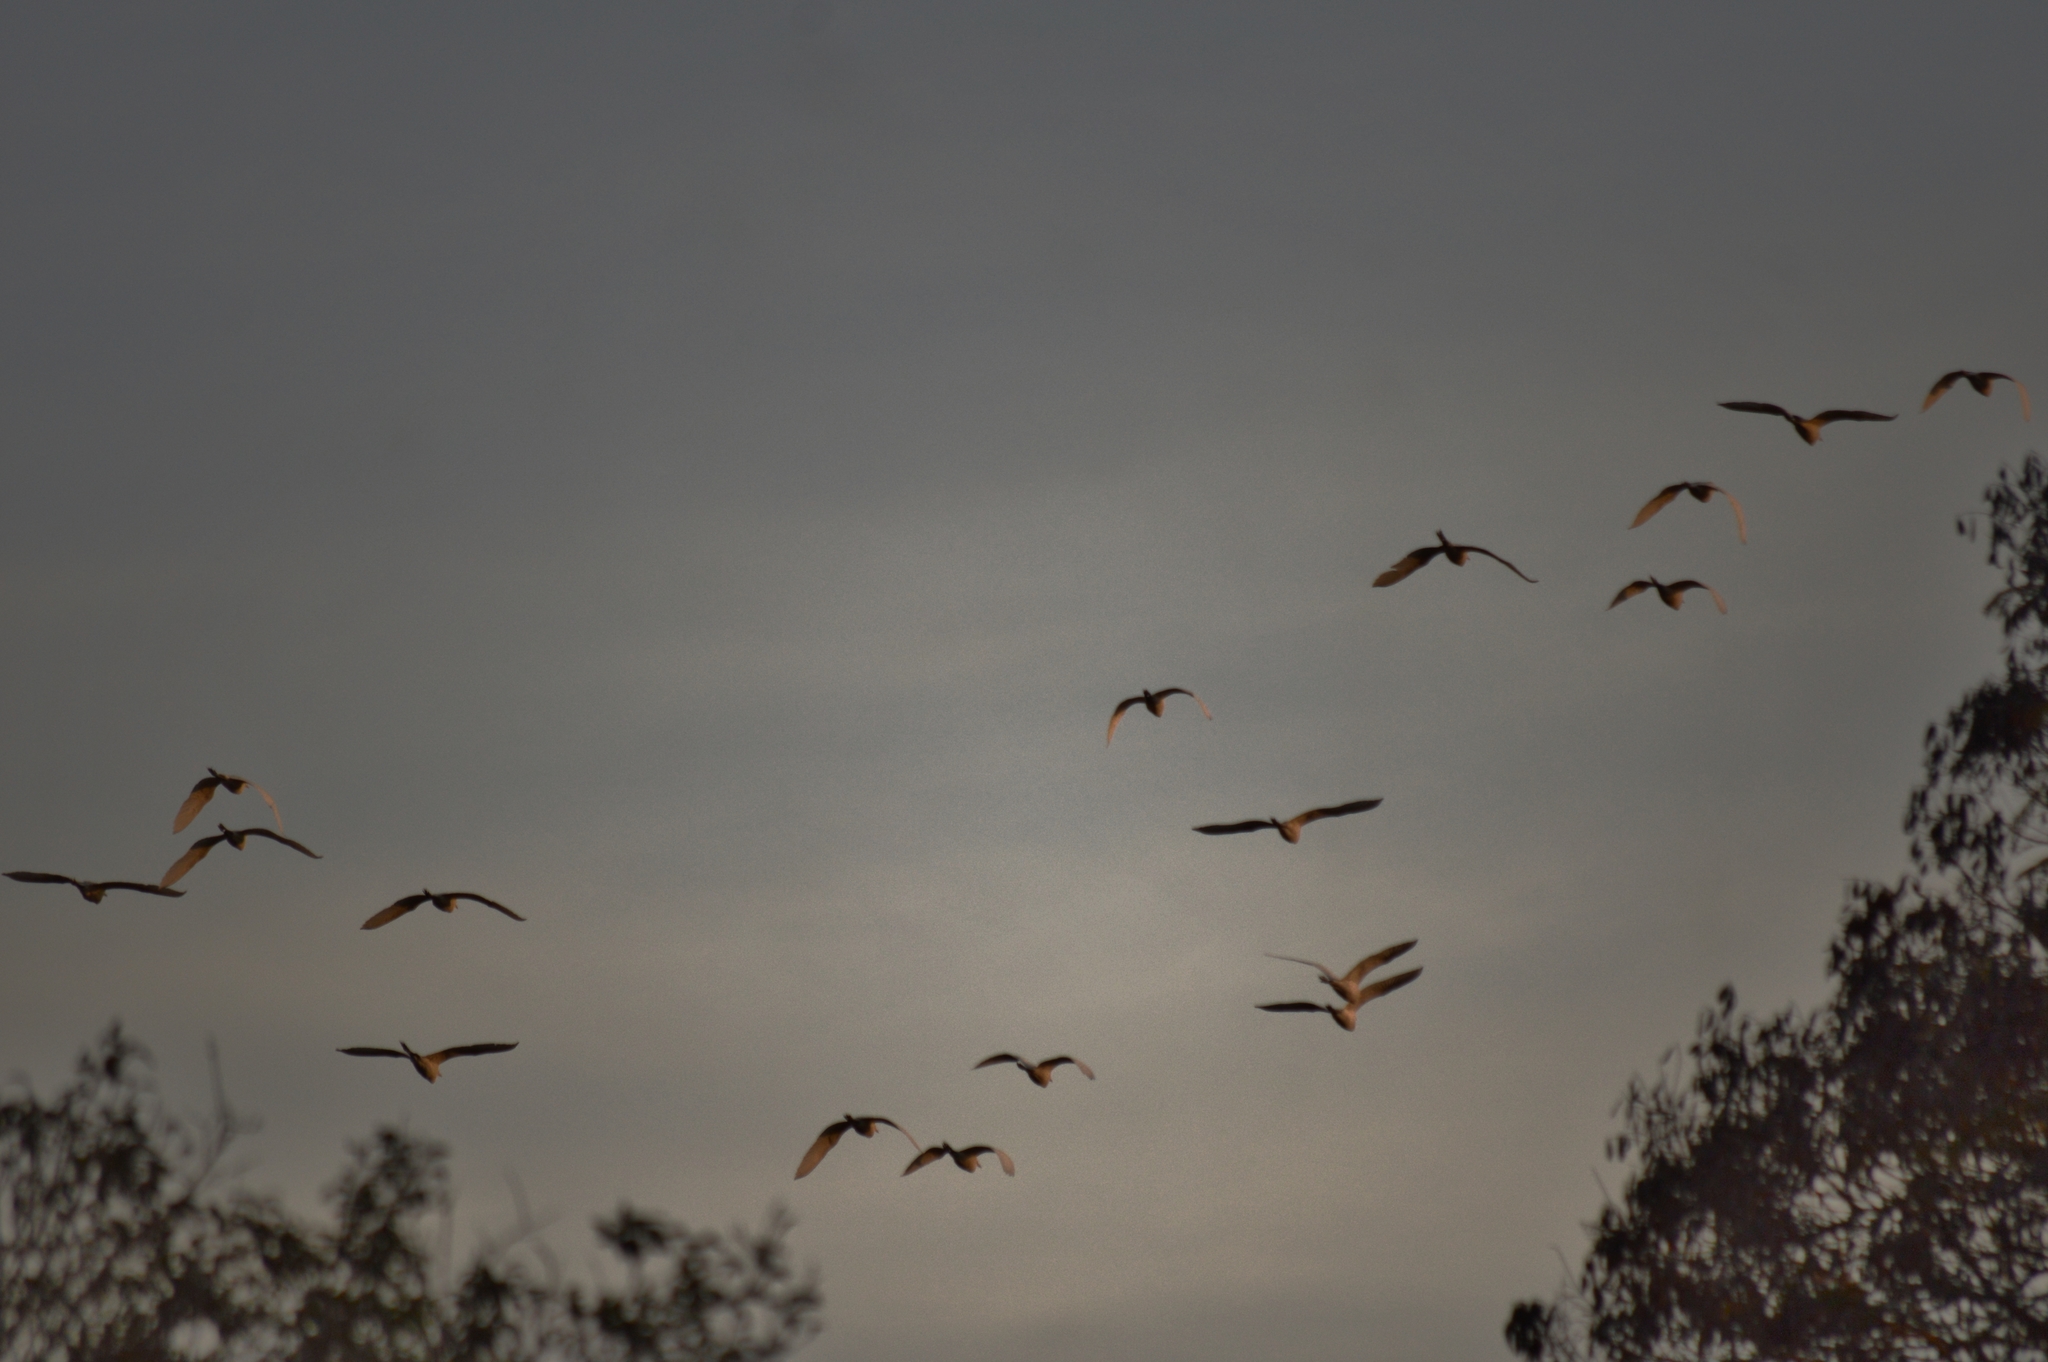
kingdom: Animalia
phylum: Chordata
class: Aves
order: Pelecaniformes
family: Ardeidae
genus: Ardea
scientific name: Ardea alba
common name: Great egret
